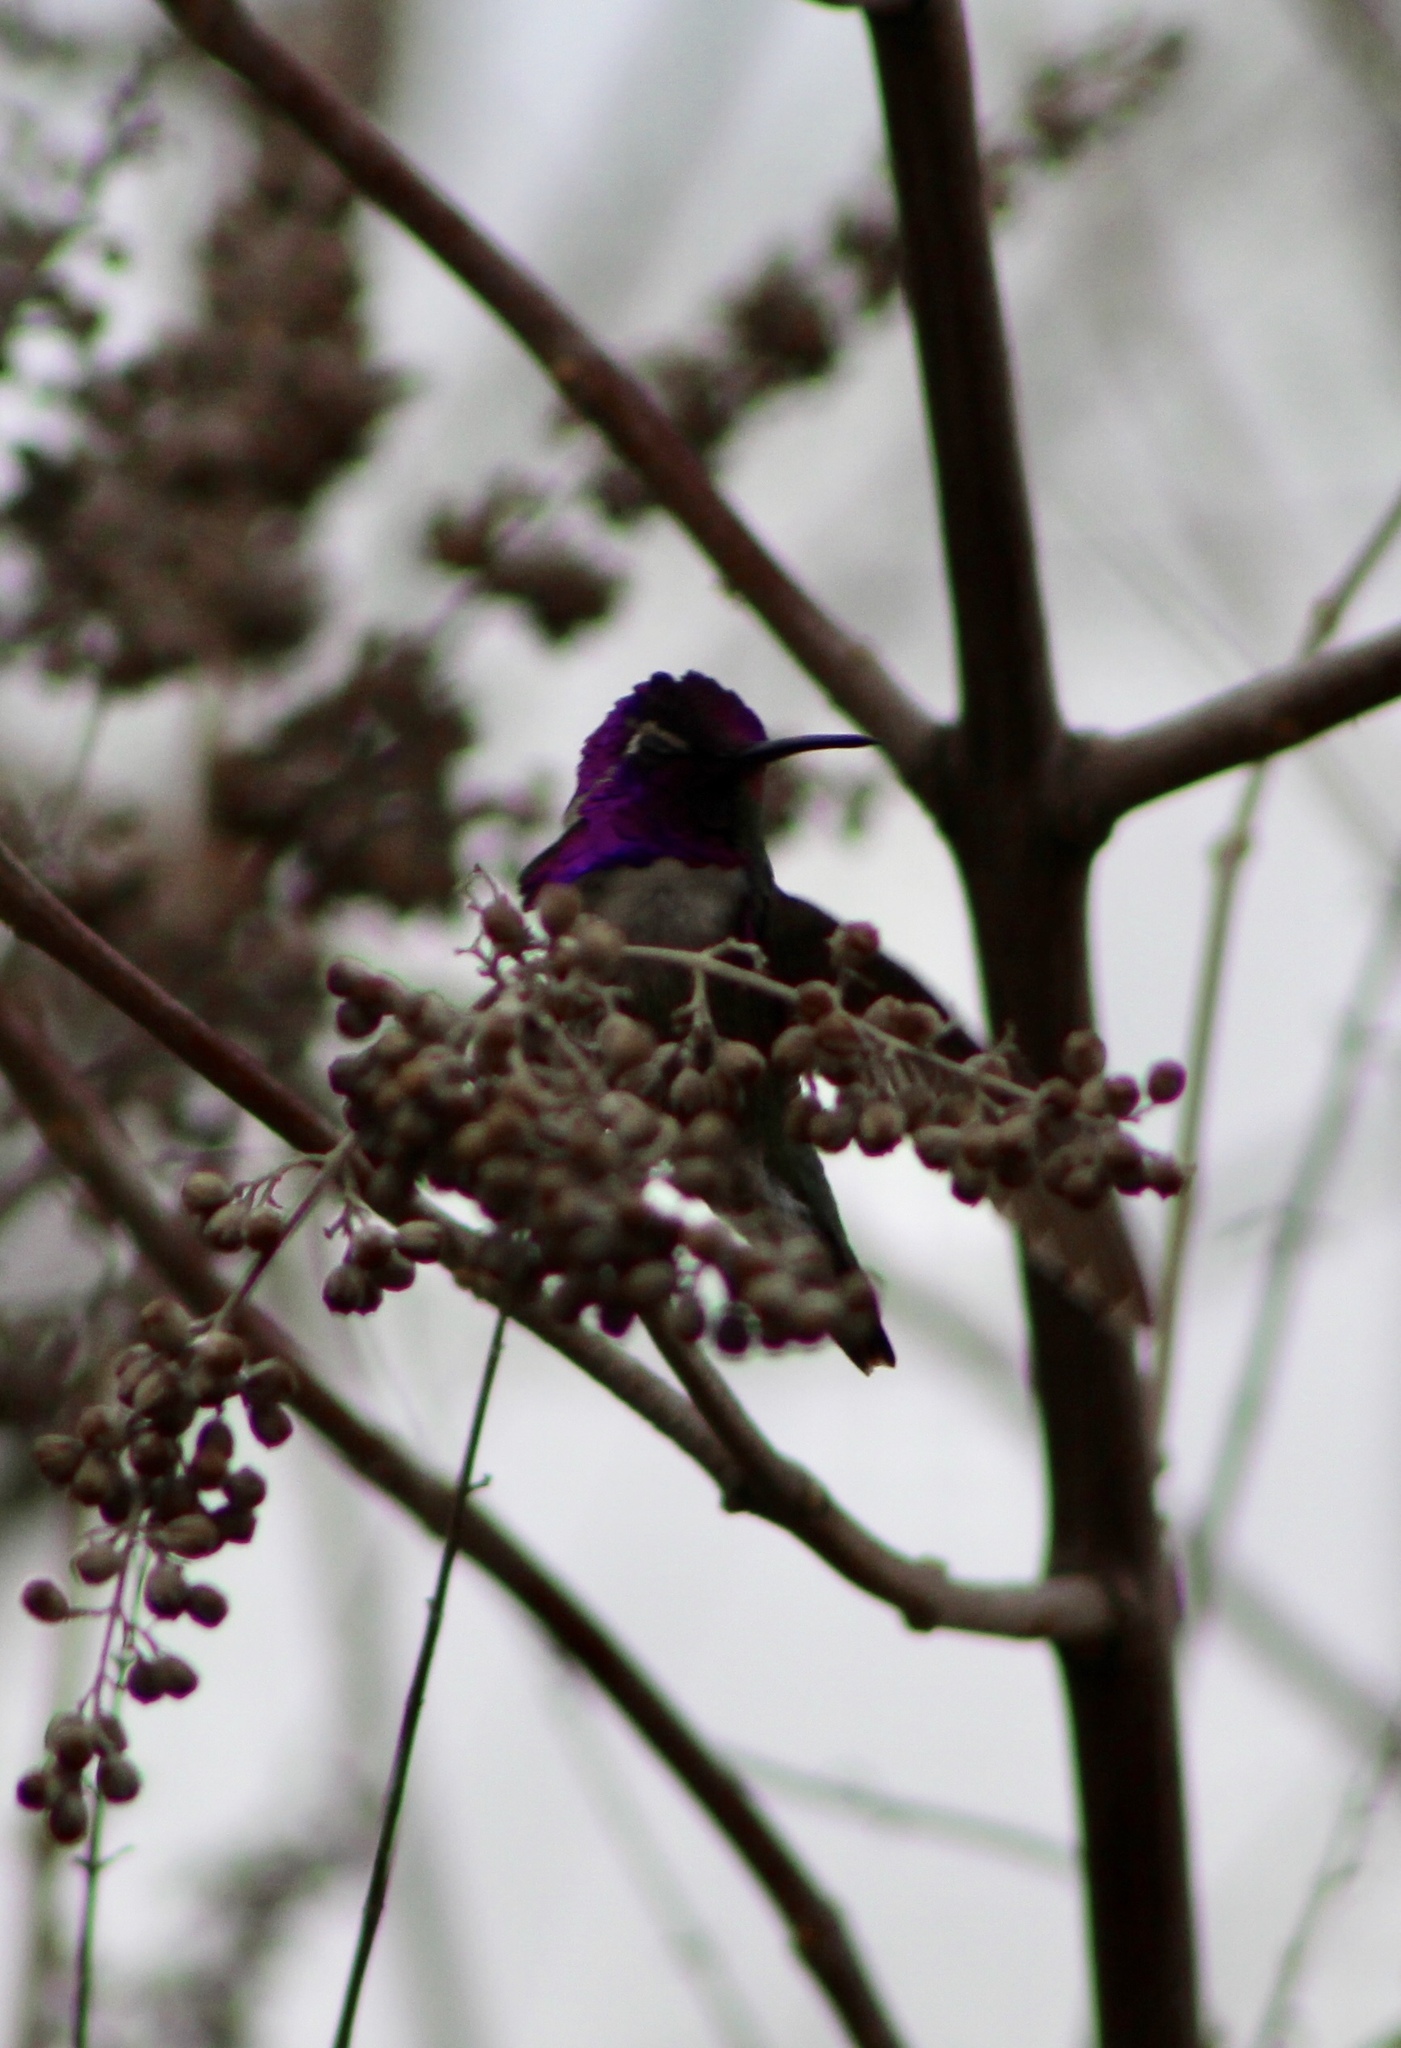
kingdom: Animalia
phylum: Chordata
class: Aves
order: Apodiformes
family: Trochilidae
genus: Calypte
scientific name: Calypte anna
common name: Anna's hummingbird
